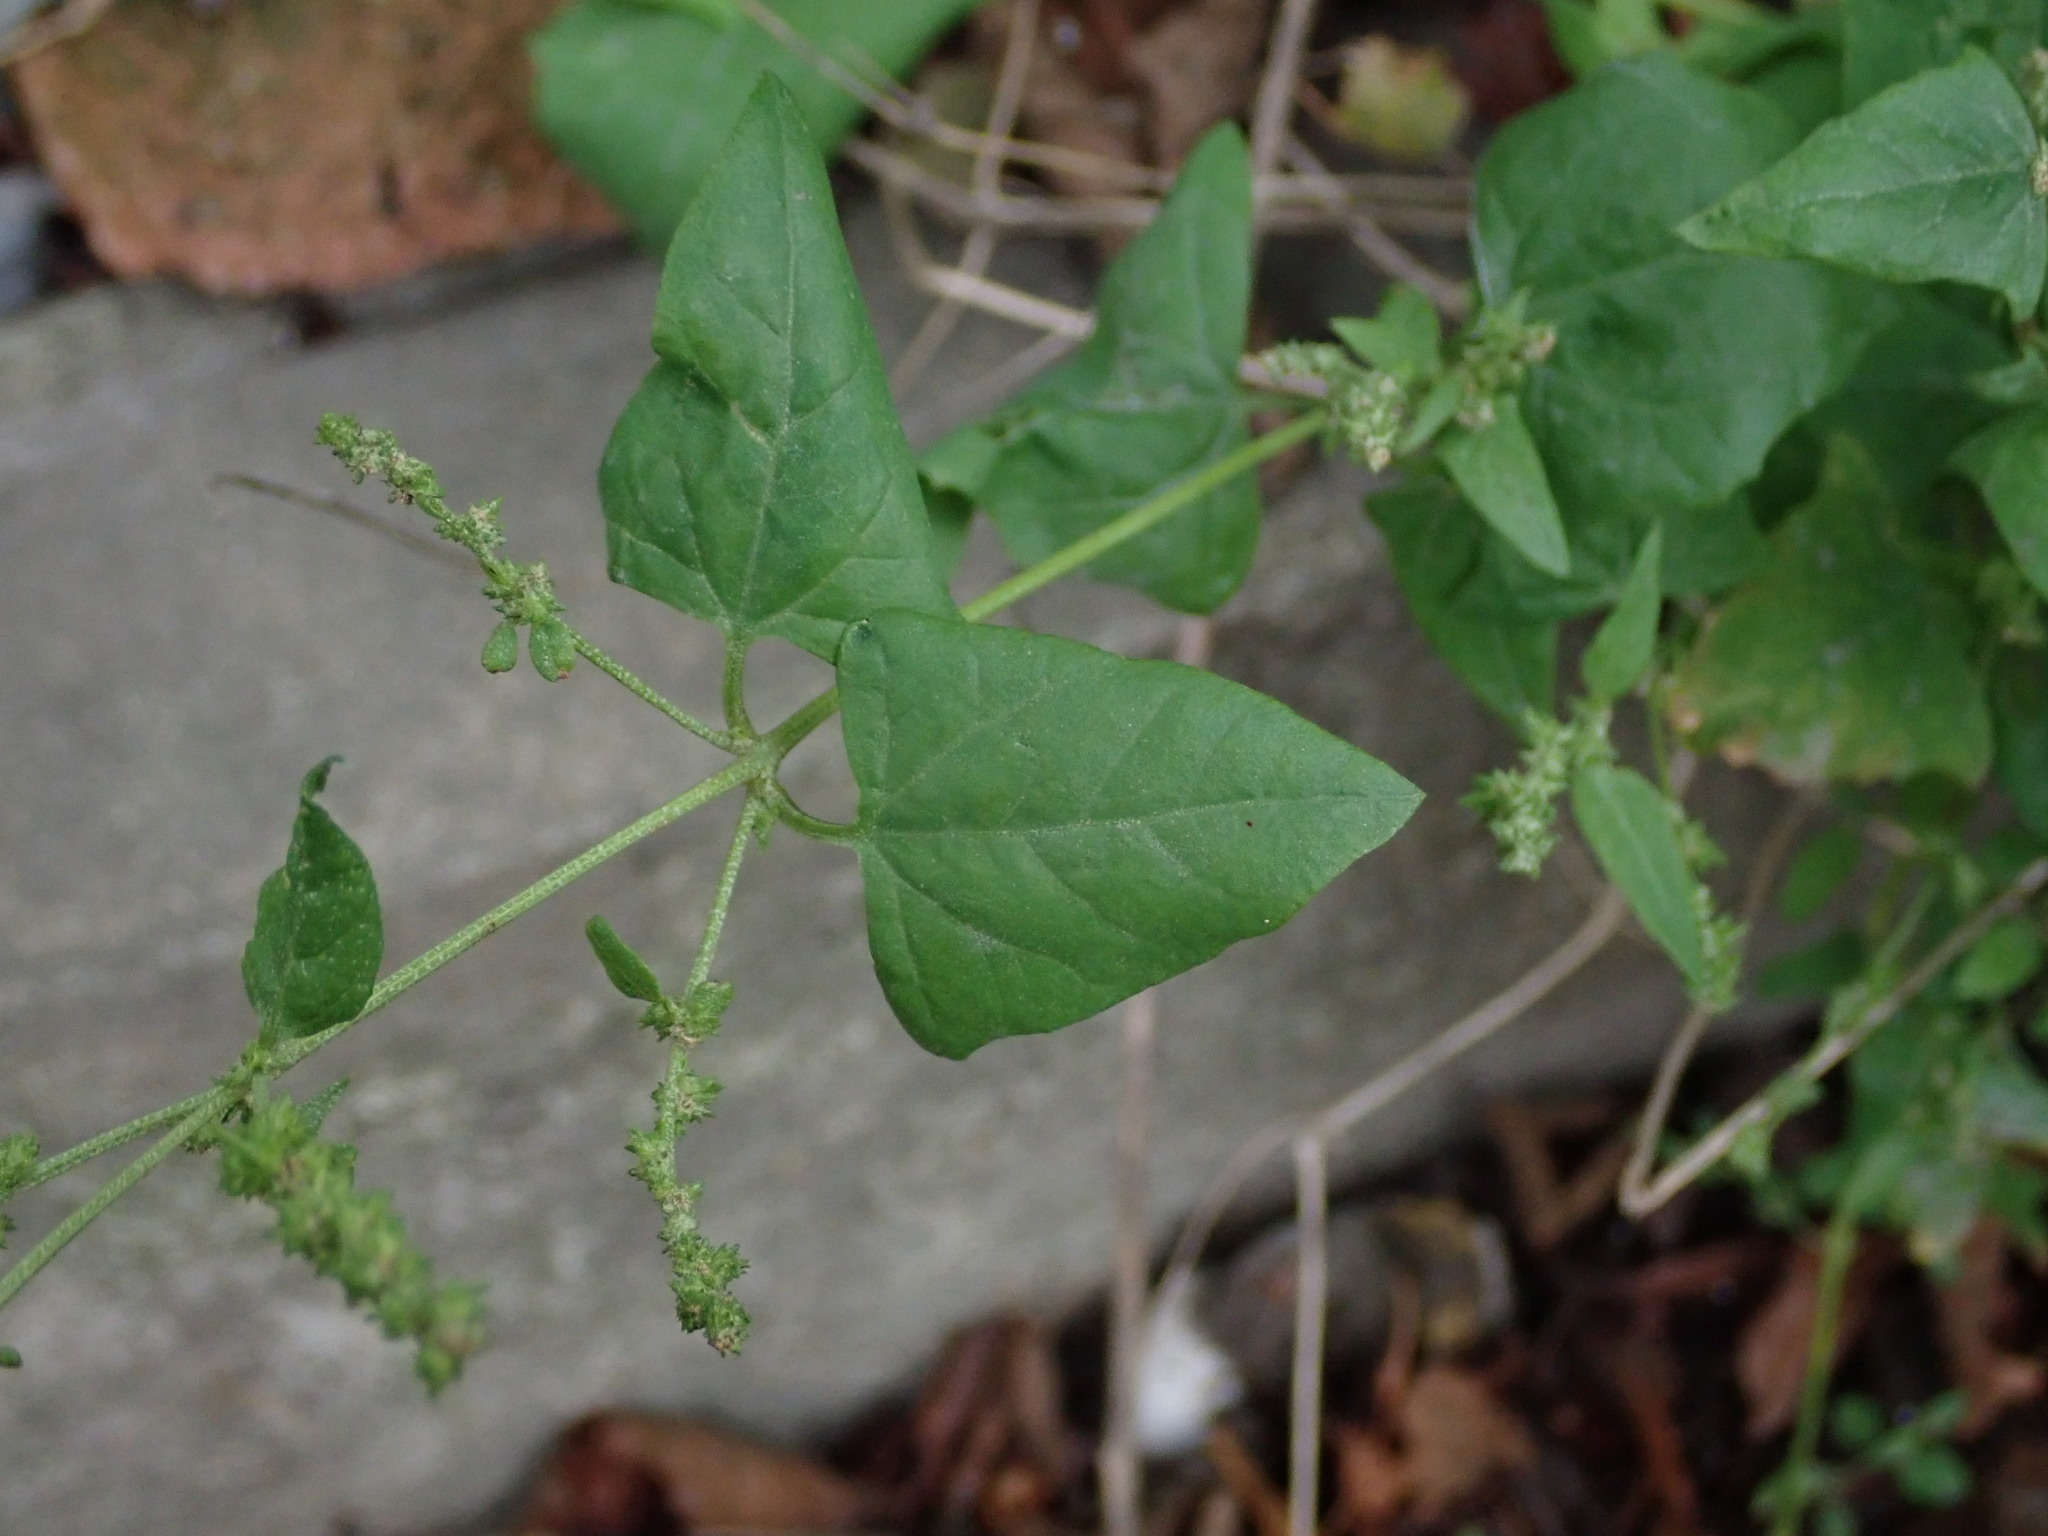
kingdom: Plantae
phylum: Tracheophyta
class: Magnoliopsida
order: Caryophyllales
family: Amaranthaceae
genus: Atriplex
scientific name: Atriplex prostrata
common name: Spear-leaved orache
